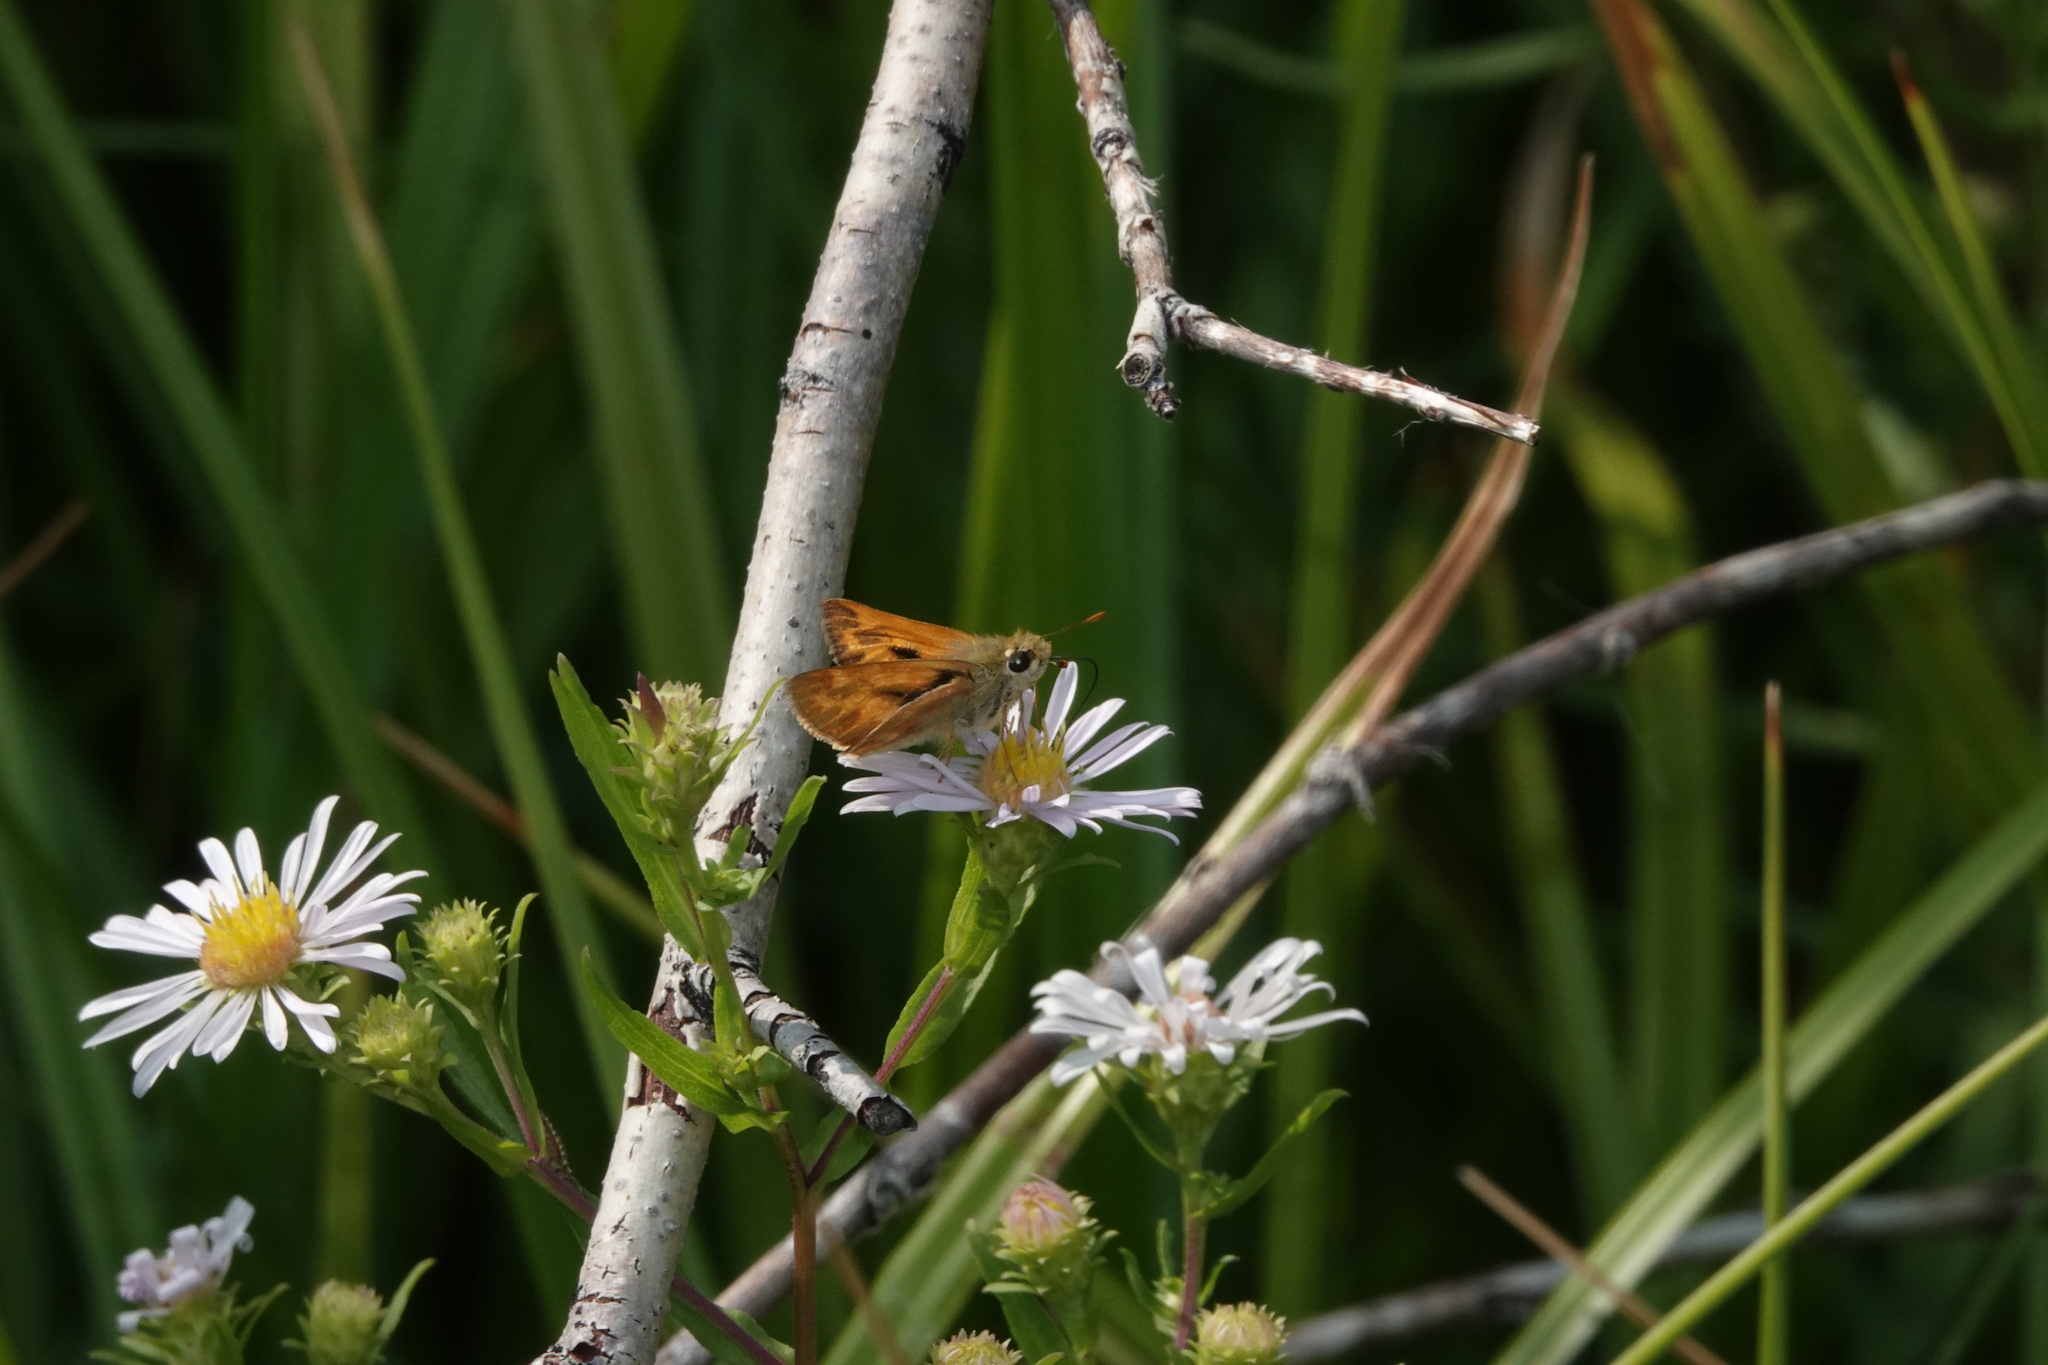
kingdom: Animalia
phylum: Arthropoda
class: Insecta
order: Lepidoptera
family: Hesperiidae
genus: Ochlodes
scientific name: Ochlodes sylvanoides
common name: Woodland skipper
